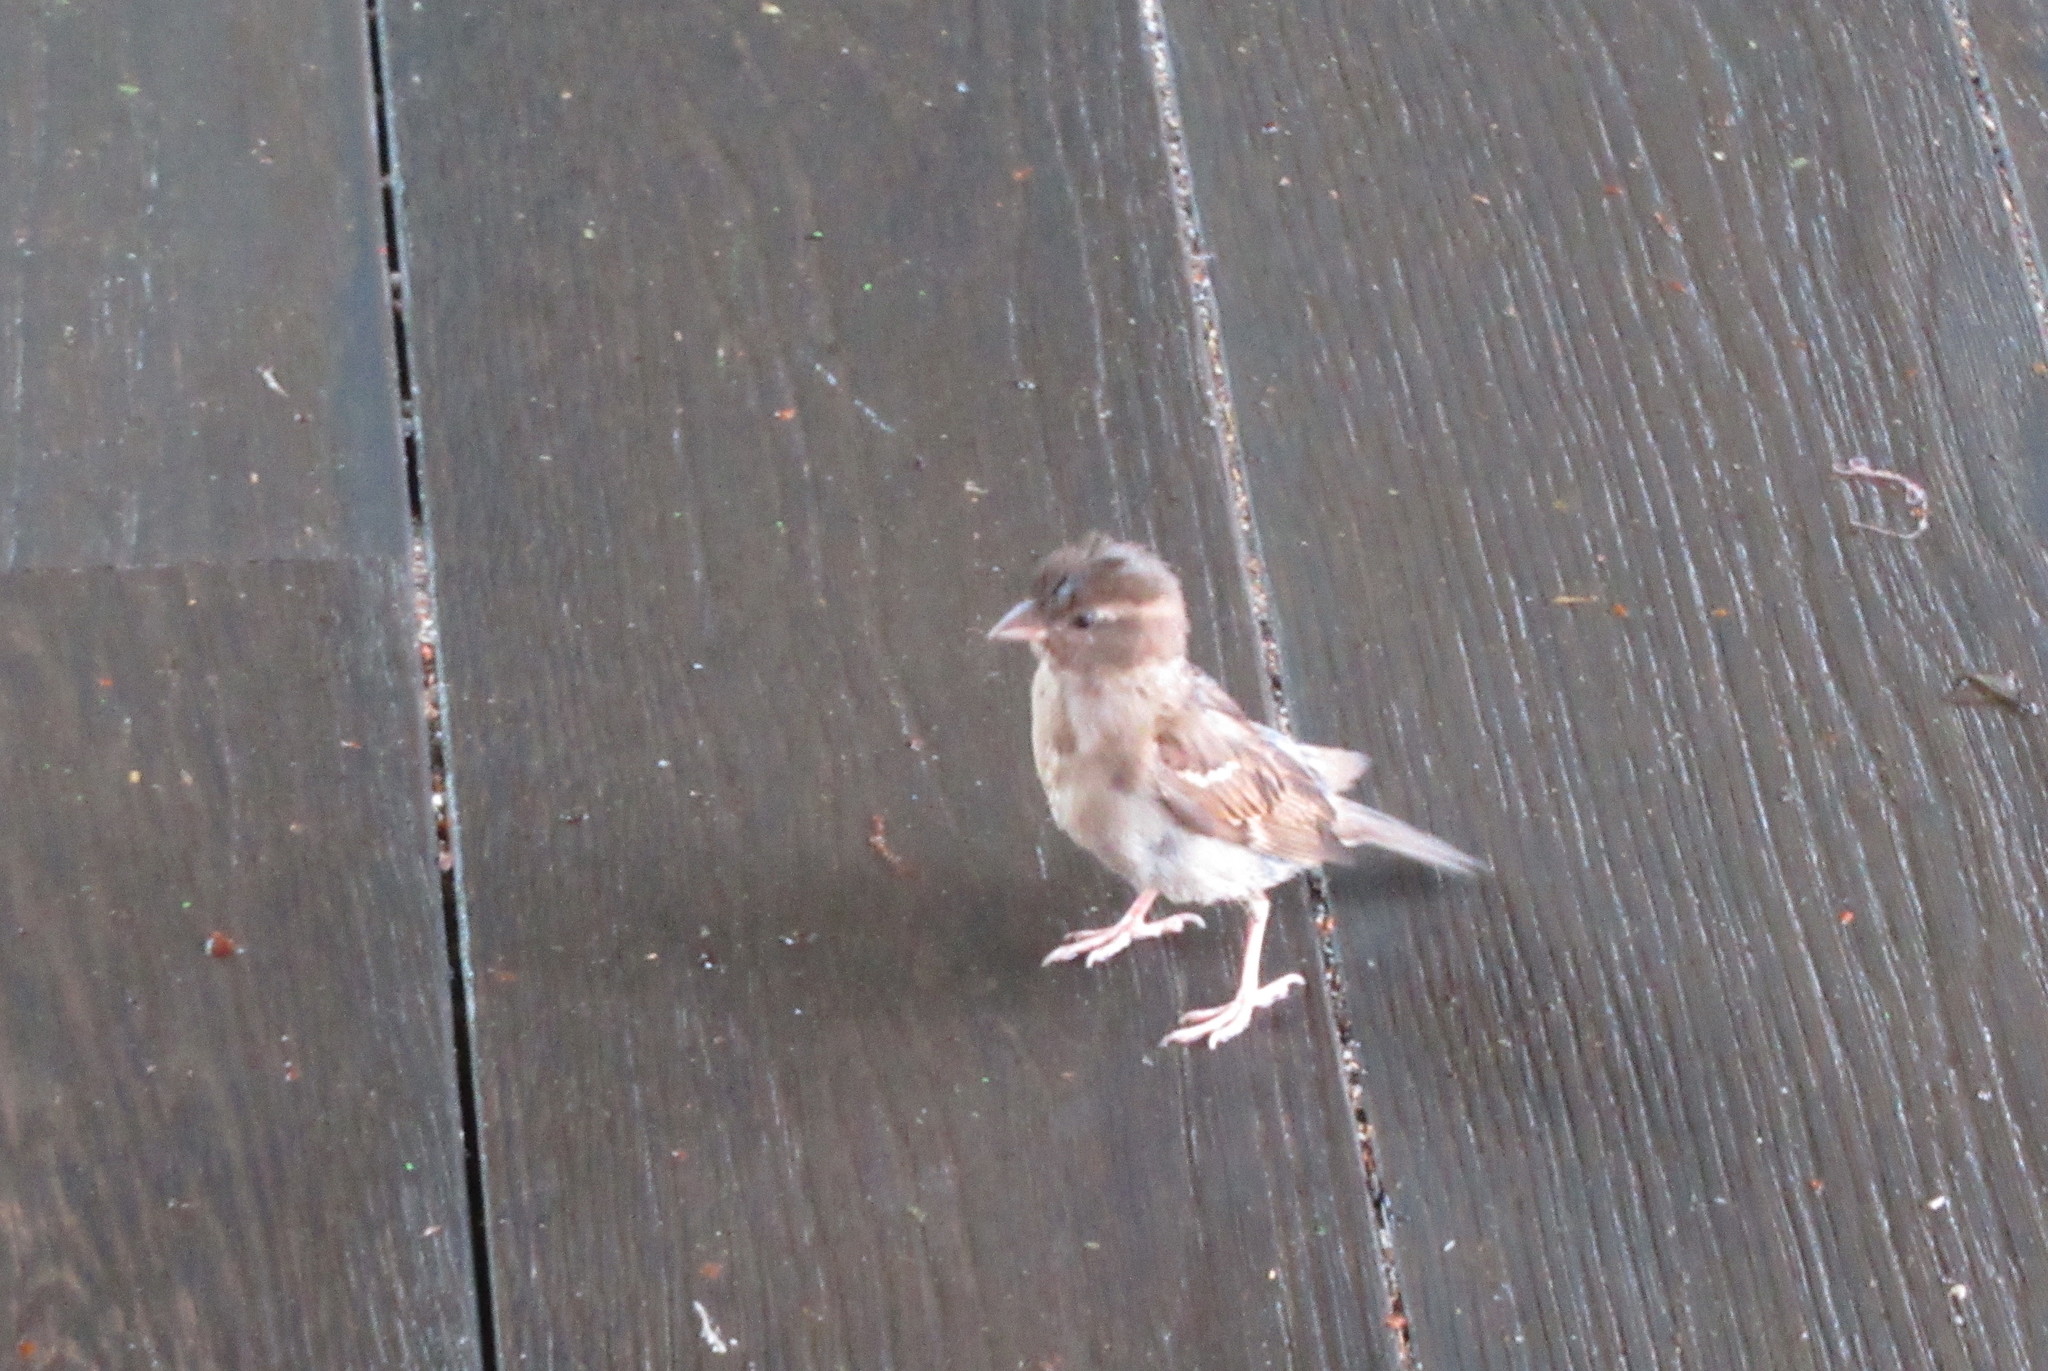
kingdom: Animalia
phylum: Chordata
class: Aves
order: Passeriformes
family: Passeridae
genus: Passer
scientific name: Passer domesticus
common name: House sparrow
